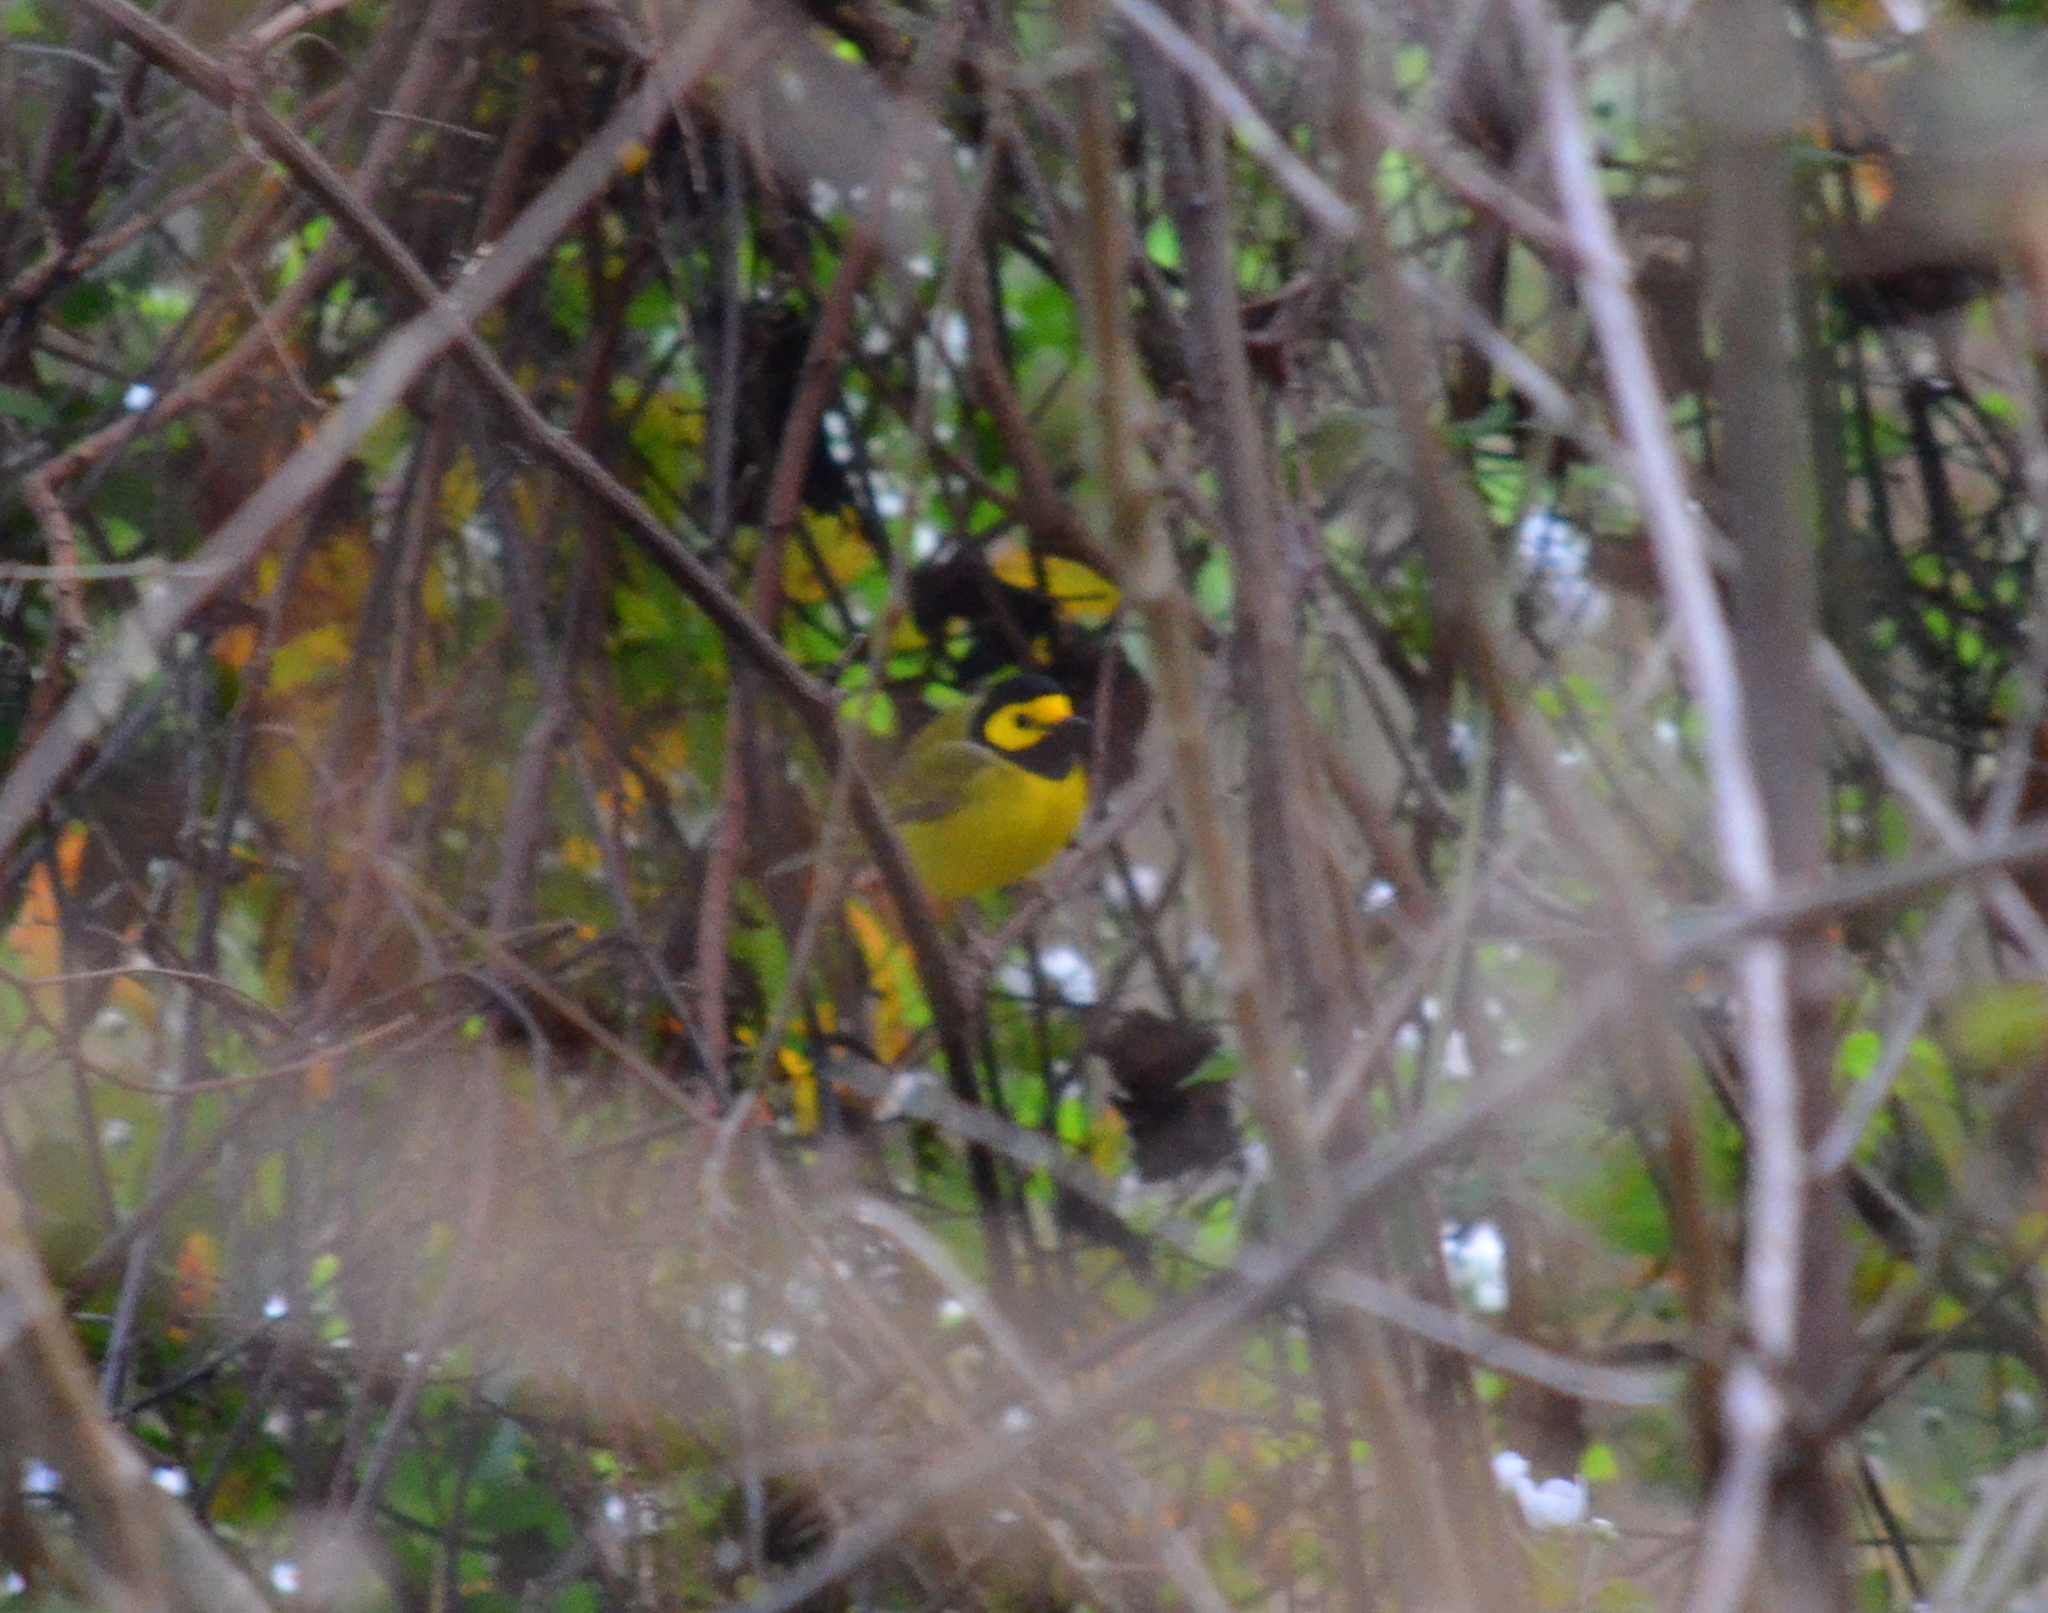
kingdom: Animalia
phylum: Chordata
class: Aves
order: Passeriformes
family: Parulidae
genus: Setophaga
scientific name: Setophaga citrina
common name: Hooded warbler
